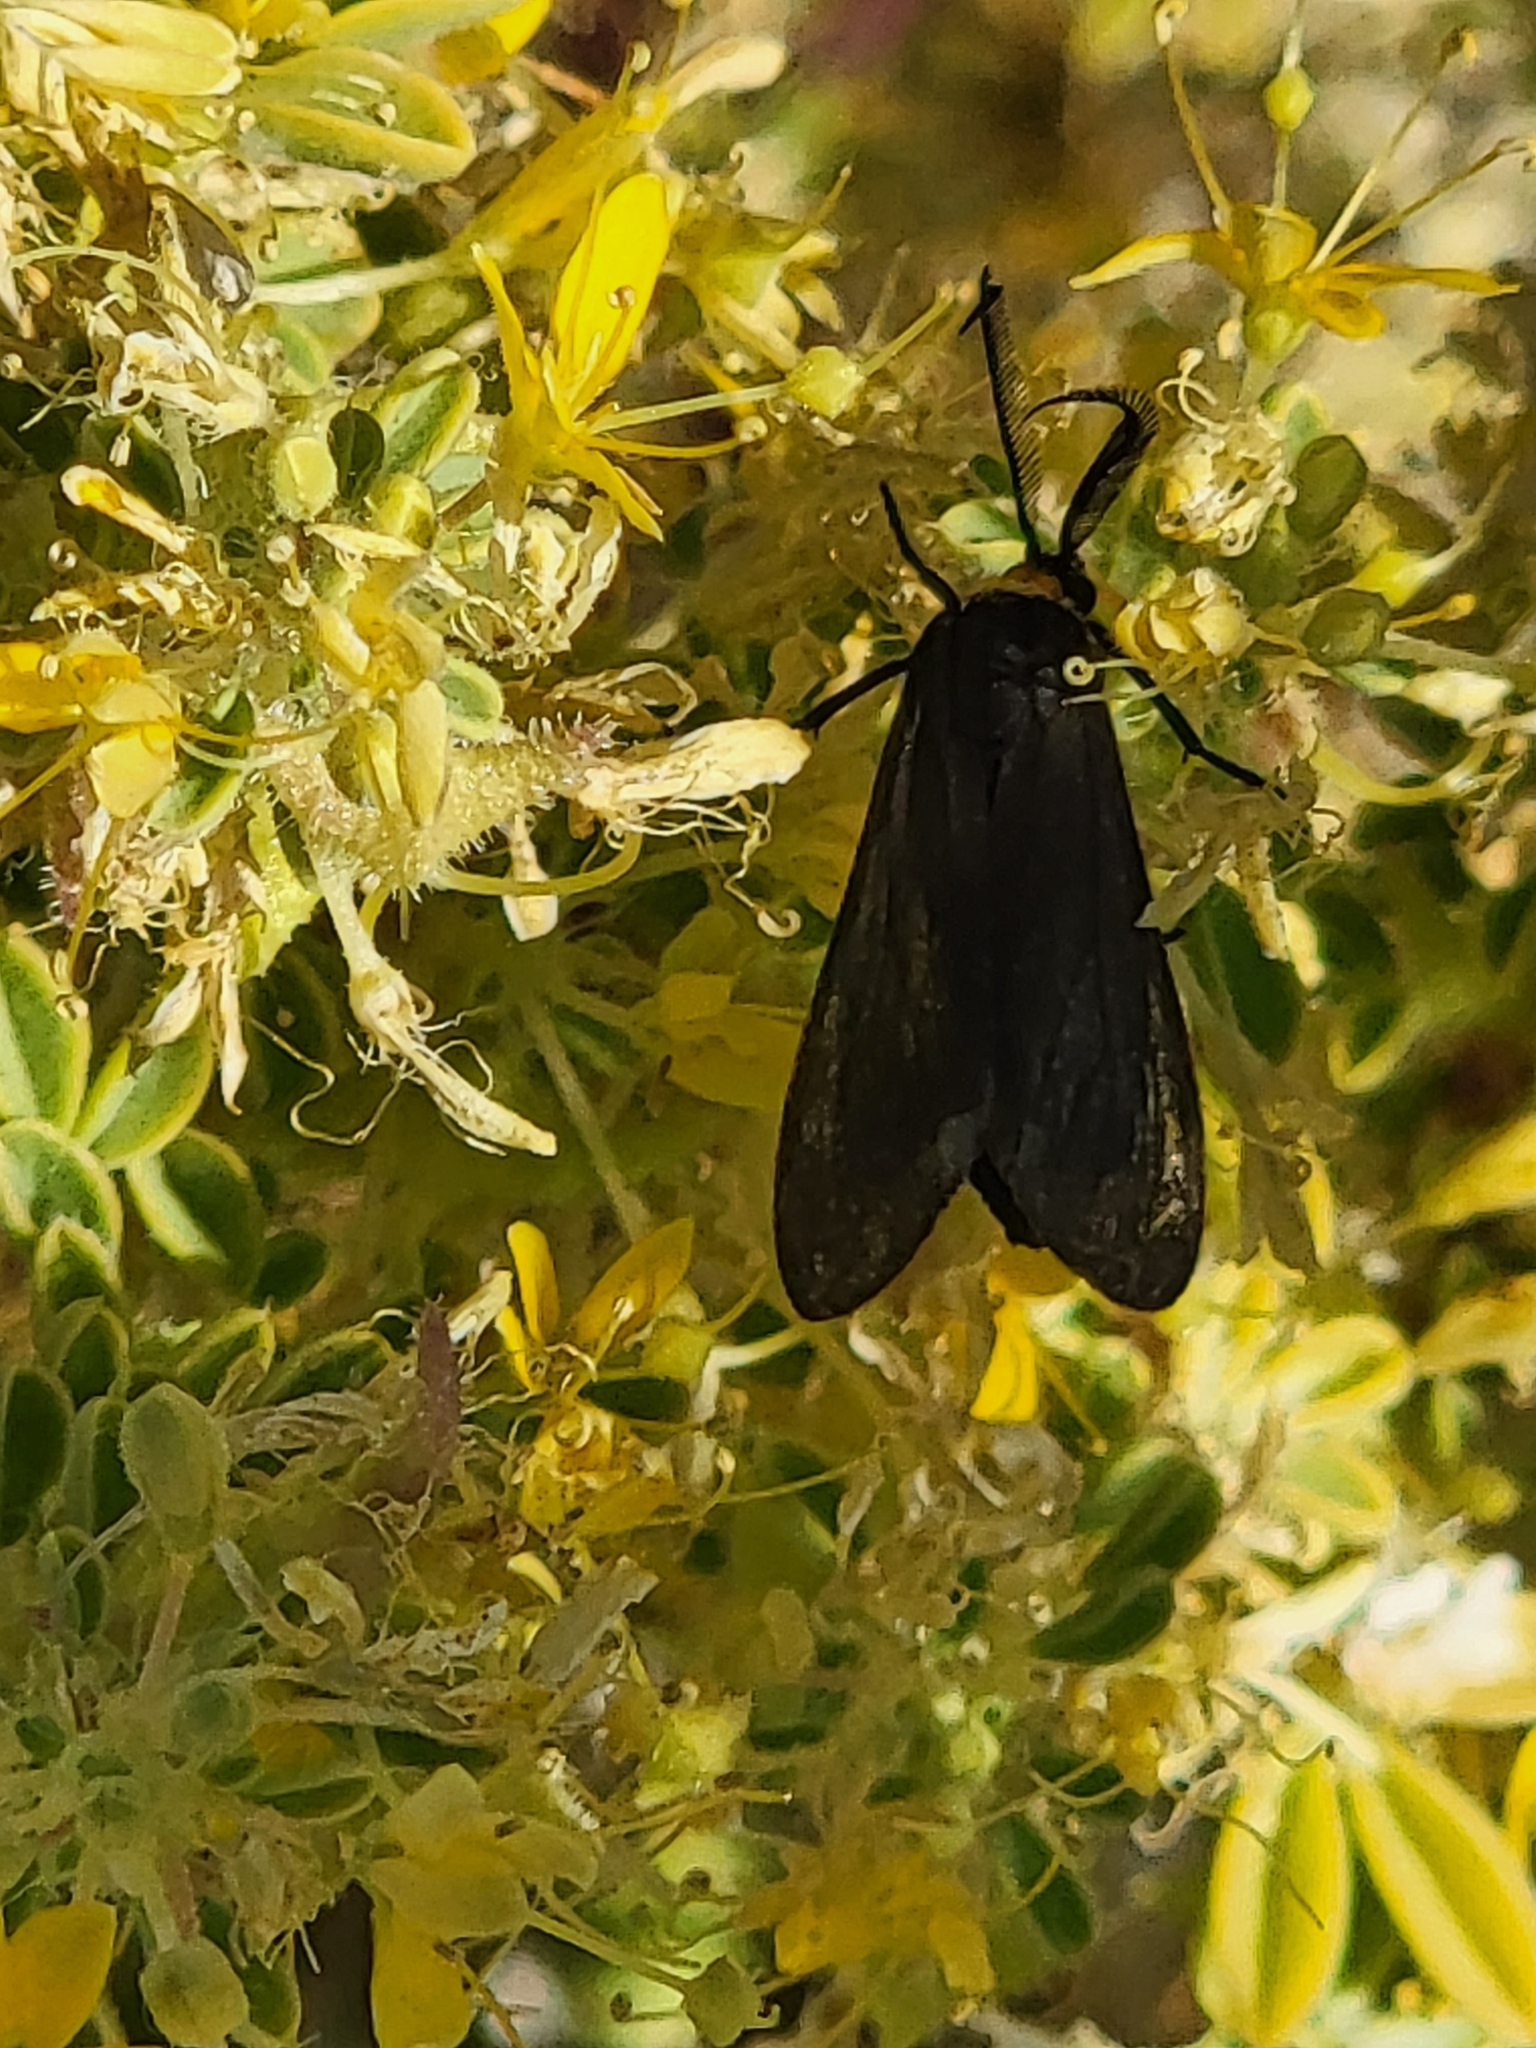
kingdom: Animalia
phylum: Arthropoda
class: Insecta
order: Lepidoptera
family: Erebidae
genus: Cisseps
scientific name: Cisseps fulvicollis
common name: Yellow-collared scape moth
